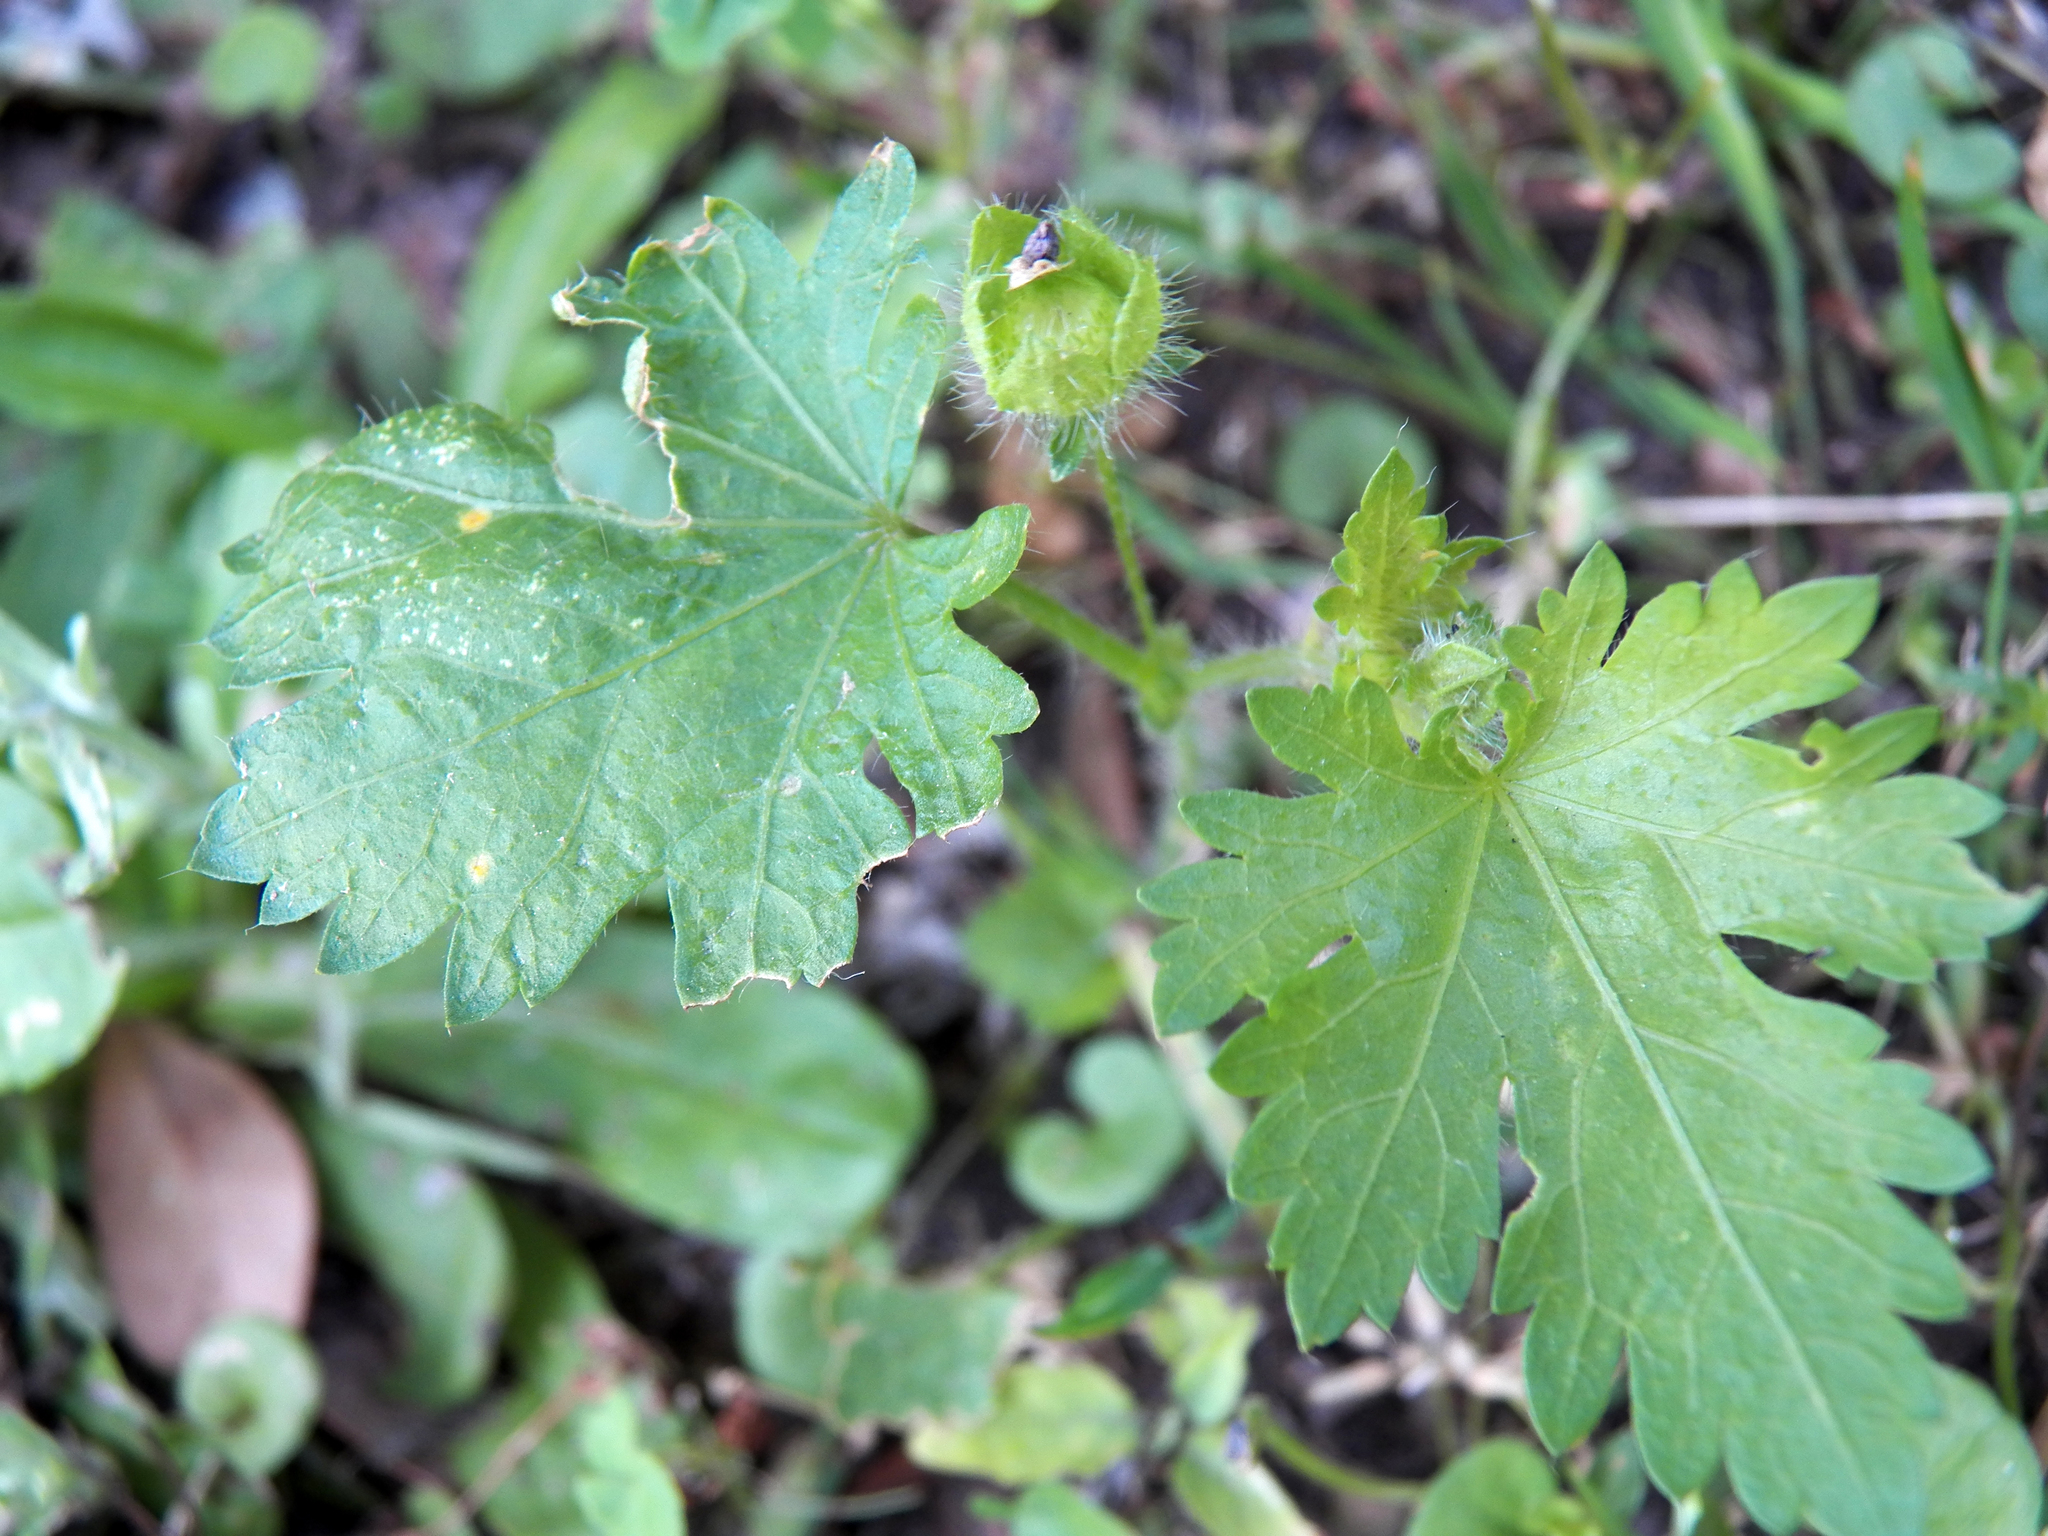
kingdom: Plantae
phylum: Tracheophyta
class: Magnoliopsida
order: Malvales
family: Malvaceae
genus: Modiola
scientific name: Modiola caroliniana
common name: Carolina bristlemallow
